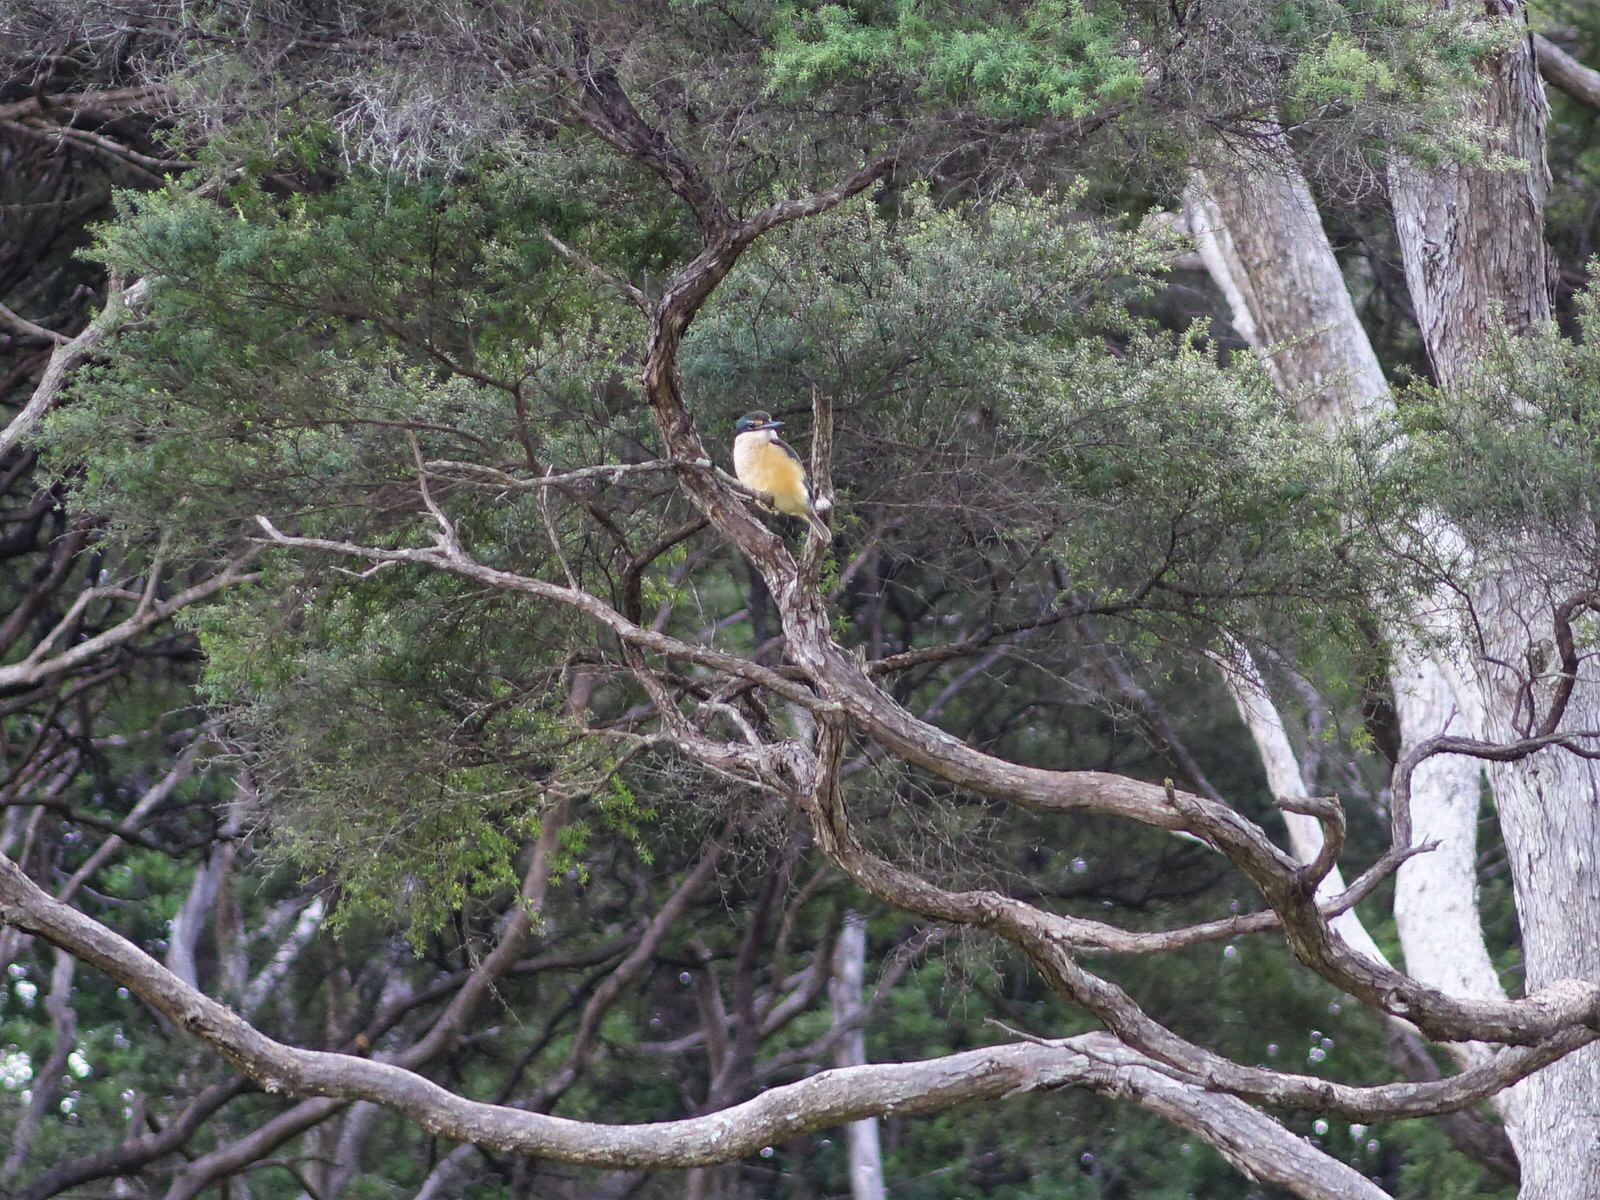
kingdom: Animalia
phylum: Chordata
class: Aves
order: Coraciiformes
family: Alcedinidae
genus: Todiramphus
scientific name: Todiramphus sanctus
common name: Sacred kingfisher
